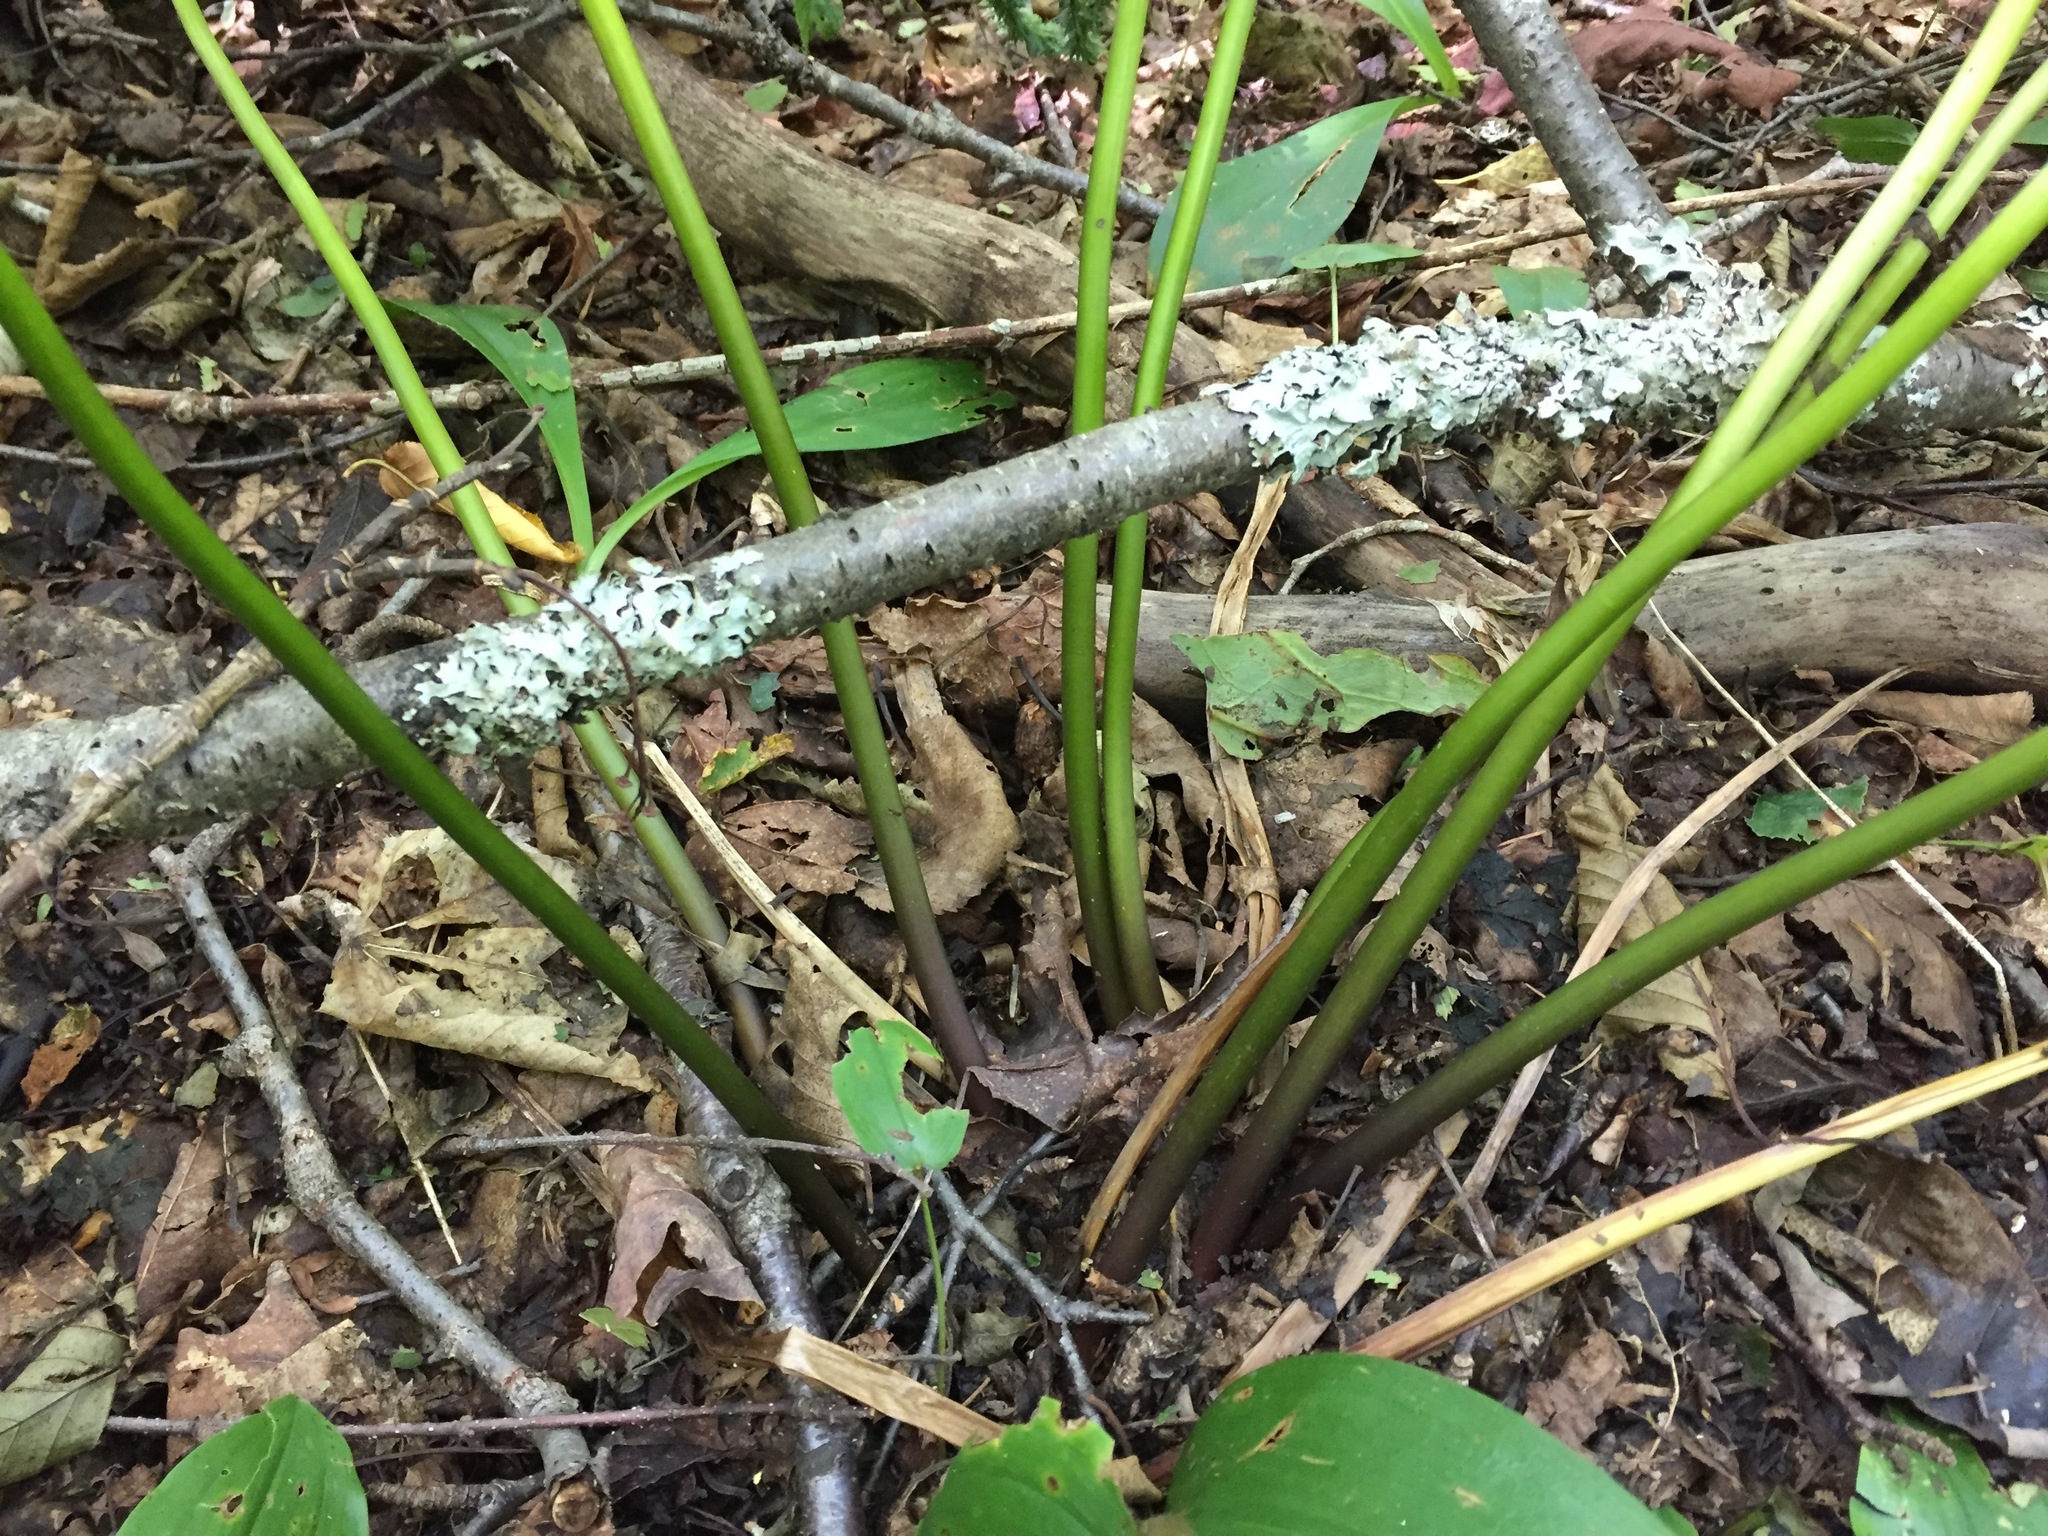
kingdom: Plantae
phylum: Tracheophyta
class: Liliopsida
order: Liliales
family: Melanthiaceae
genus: Trillium
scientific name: Trillium erectum
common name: Purple trillium
